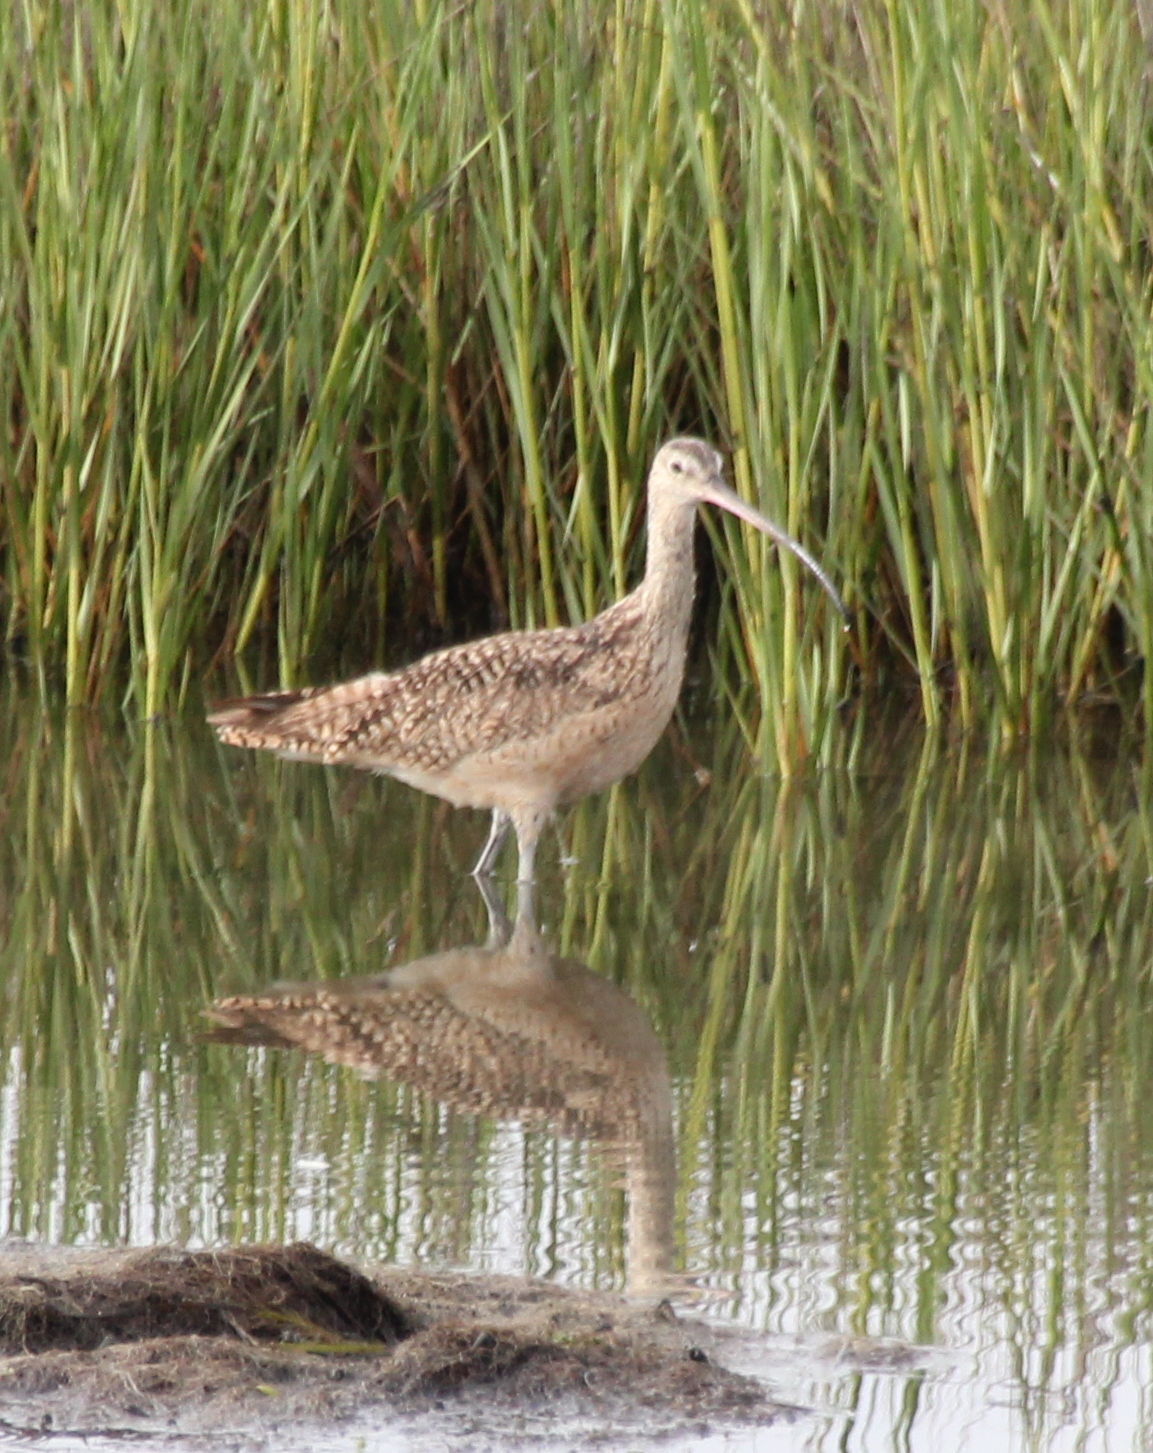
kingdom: Animalia
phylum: Chordata
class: Aves
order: Charadriiformes
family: Scolopacidae
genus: Numenius
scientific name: Numenius americanus
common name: Long-billed curlew
